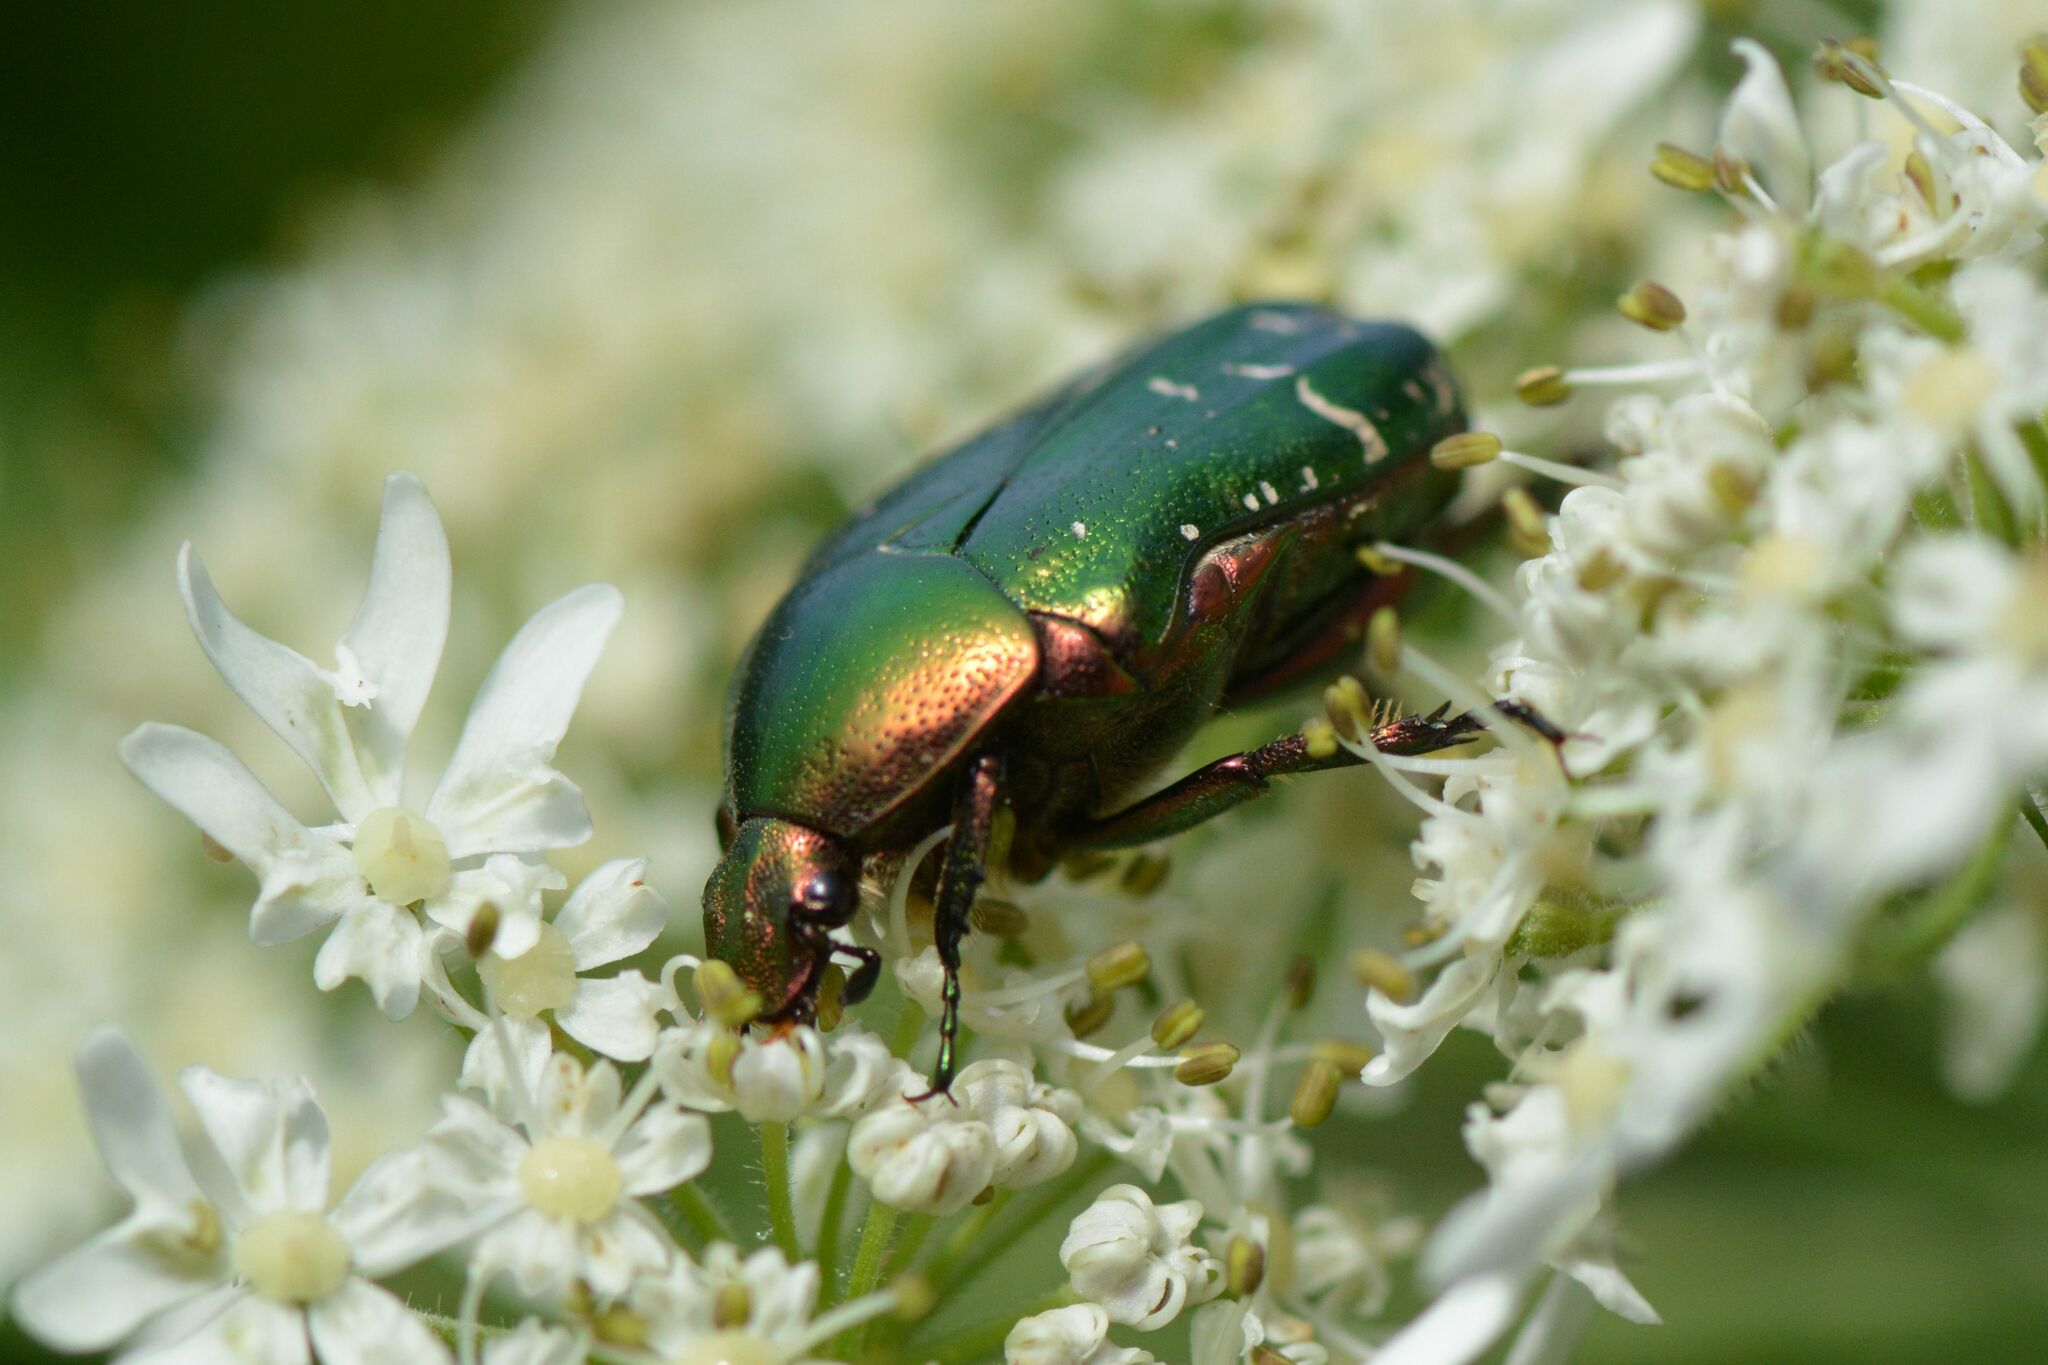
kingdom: Animalia
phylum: Arthropoda
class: Insecta
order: Coleoptera
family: Scarabaeidae
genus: Cetonia
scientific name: Cetonia aurata
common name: Rose chafer
